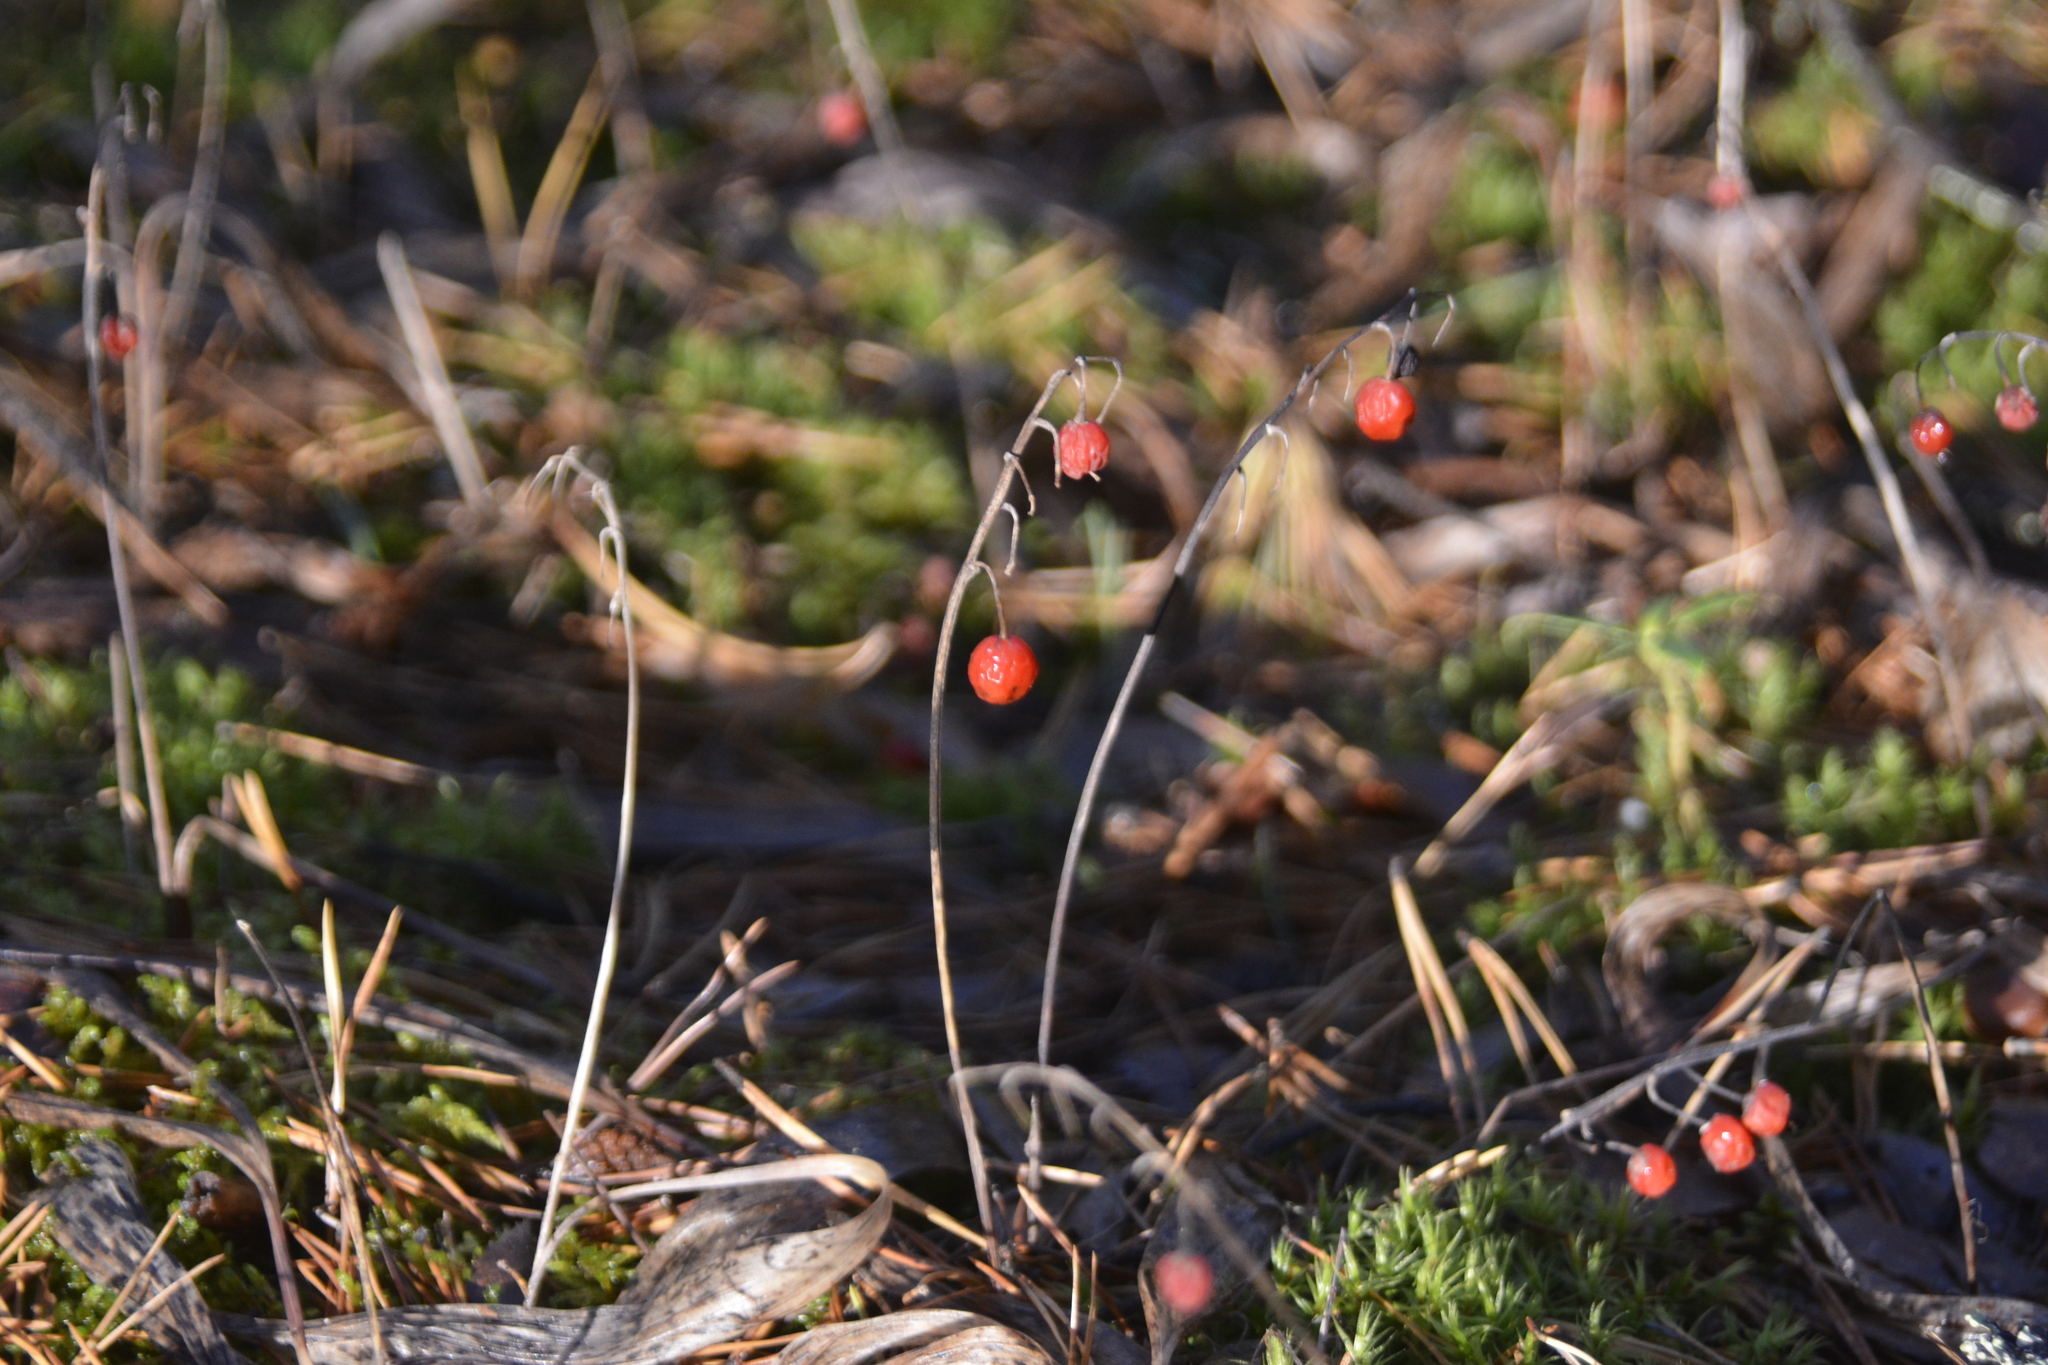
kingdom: Plantae
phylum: Tracheophyta
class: Liliopsida
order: Asparagales
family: Asparagaceae
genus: Convallaria
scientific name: Convallaria majalis
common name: Lily-of-the-valley
